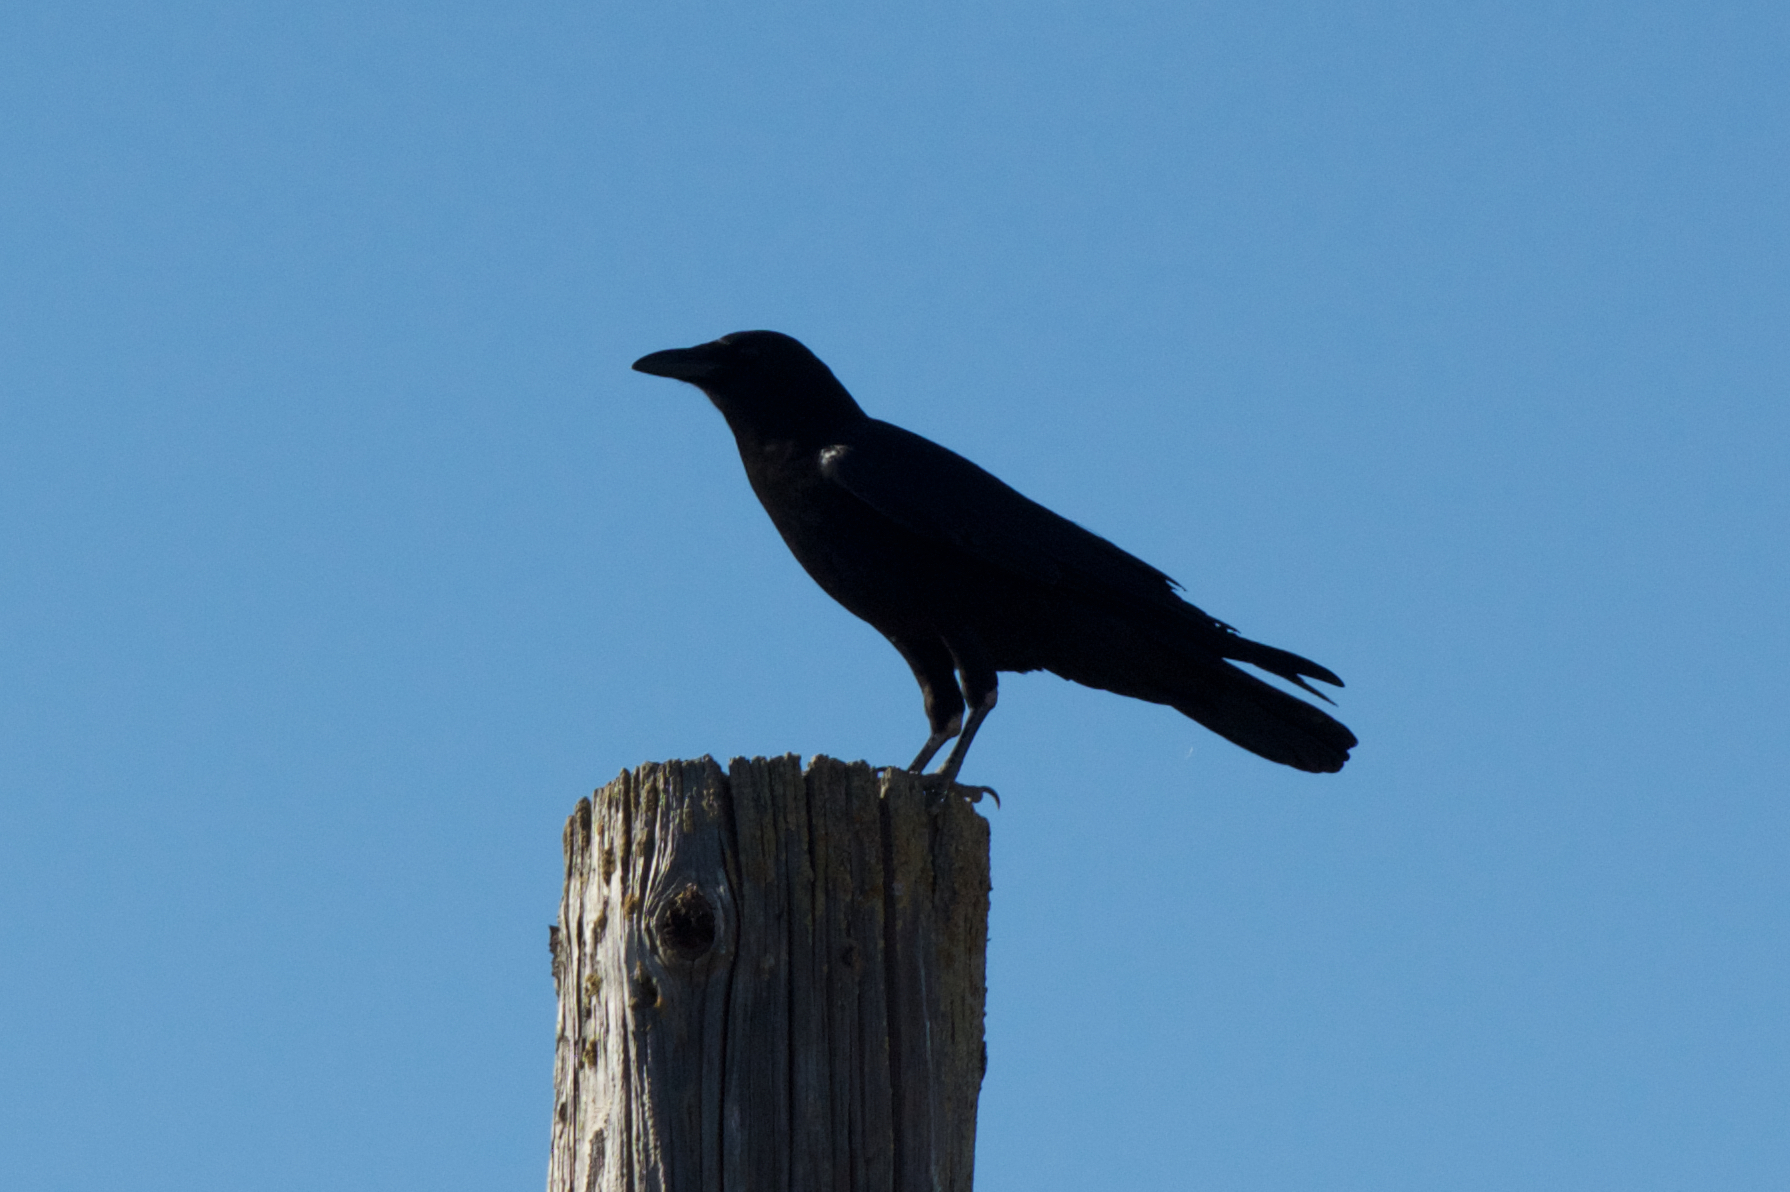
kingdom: Animalia
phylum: Chordata
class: Aves
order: Passeriformes
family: Corvidae
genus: Corvus
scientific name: Corvus brachyrhynchos
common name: American crow
